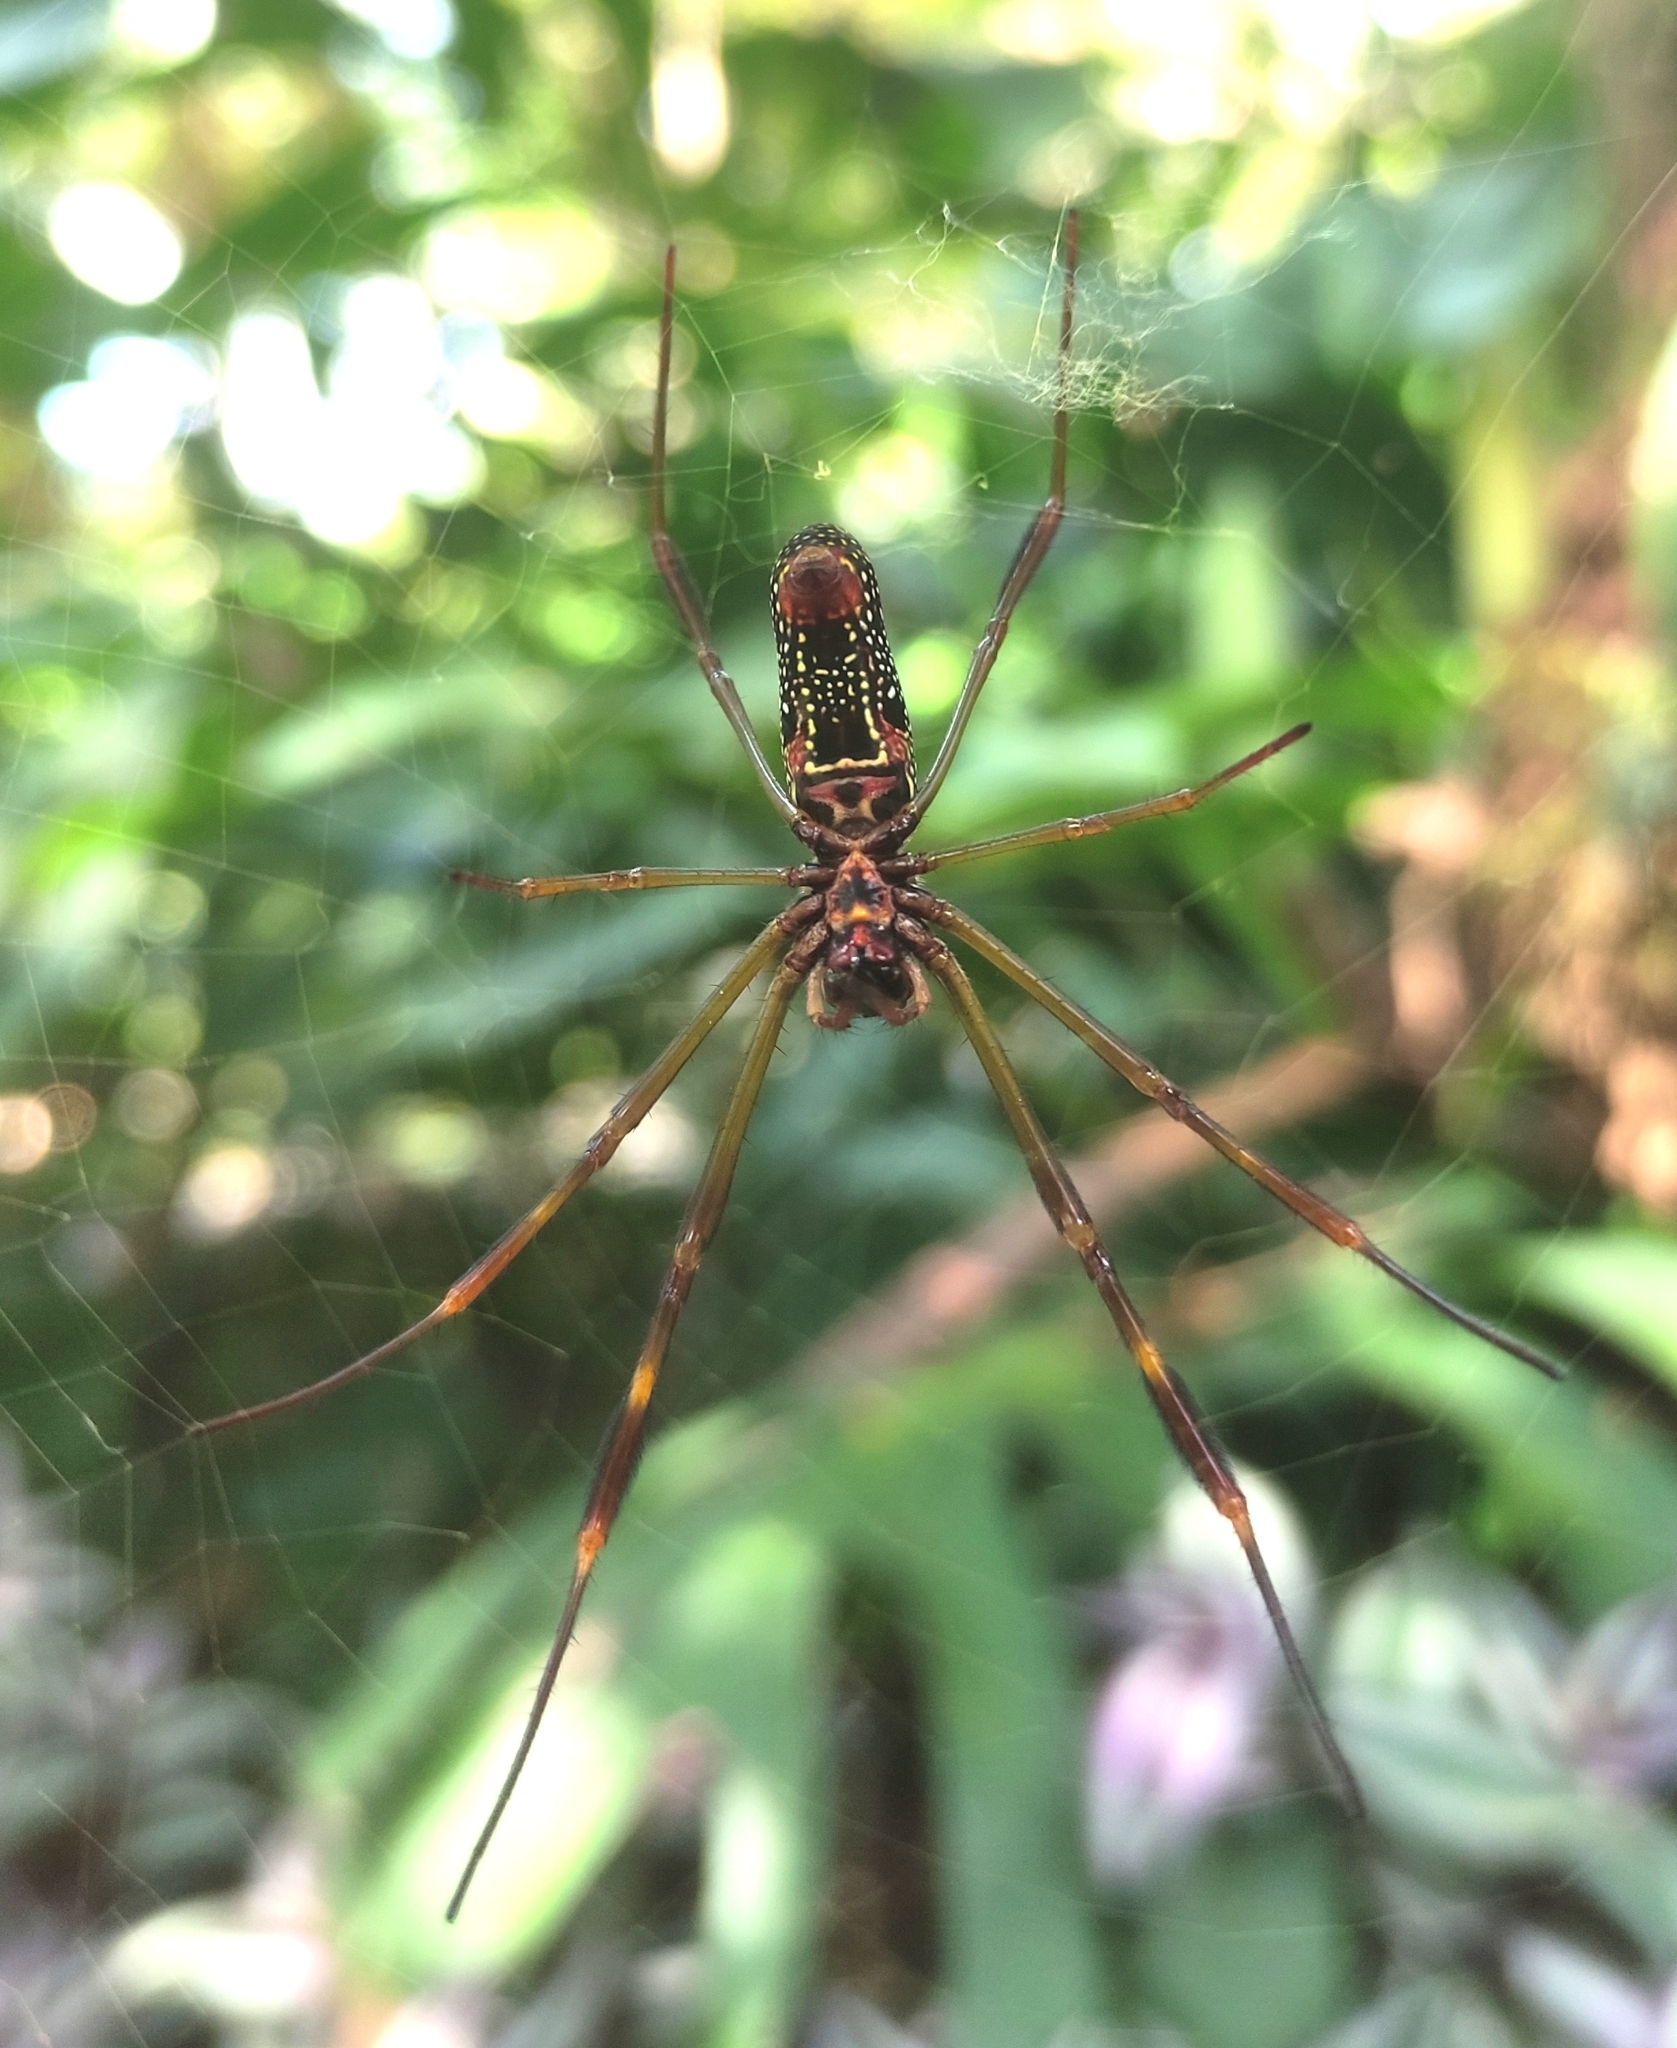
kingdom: Animalia
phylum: Arthropoda
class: Arachnida
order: Araneae
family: Araneidae
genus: Trichonephila
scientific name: Trichonephila clavipes
